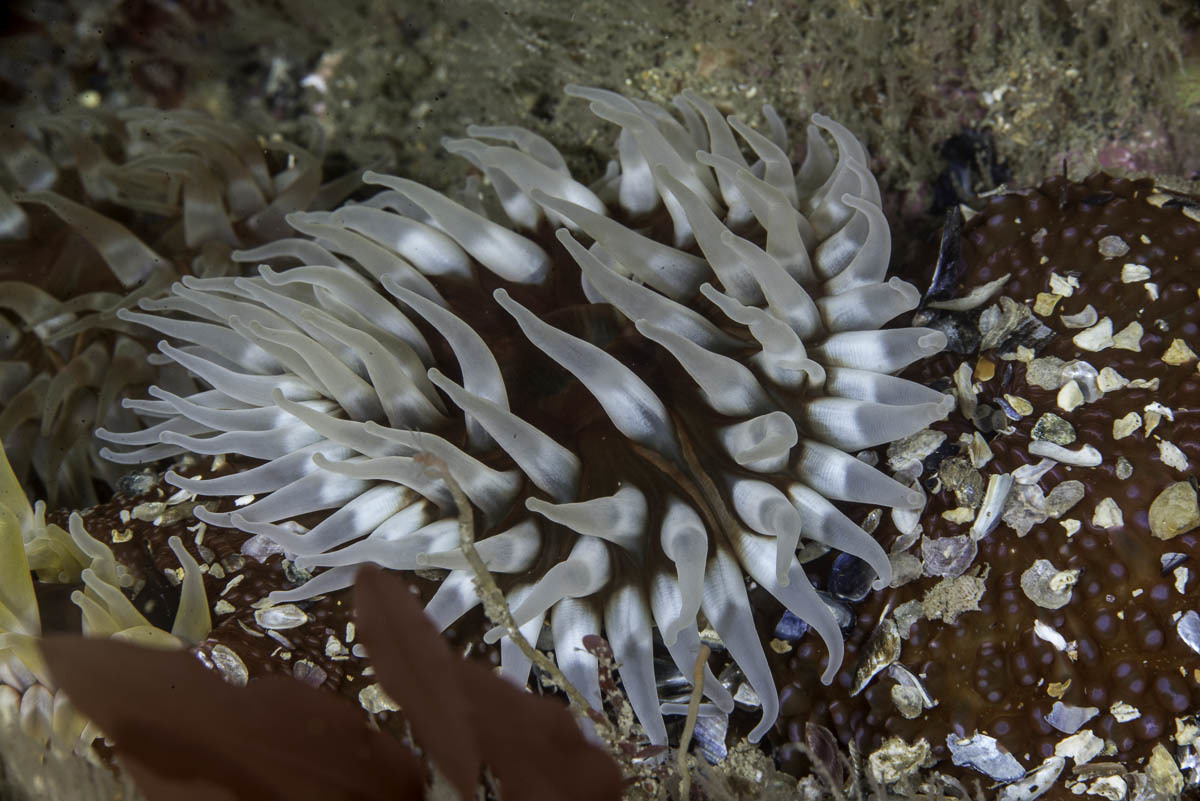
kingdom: Animalia
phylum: Cnidaria
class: Anthozoa
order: Actiniaria
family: Actiniidae
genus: Urticina
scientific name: Urticina felina
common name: Dahlia anemone
